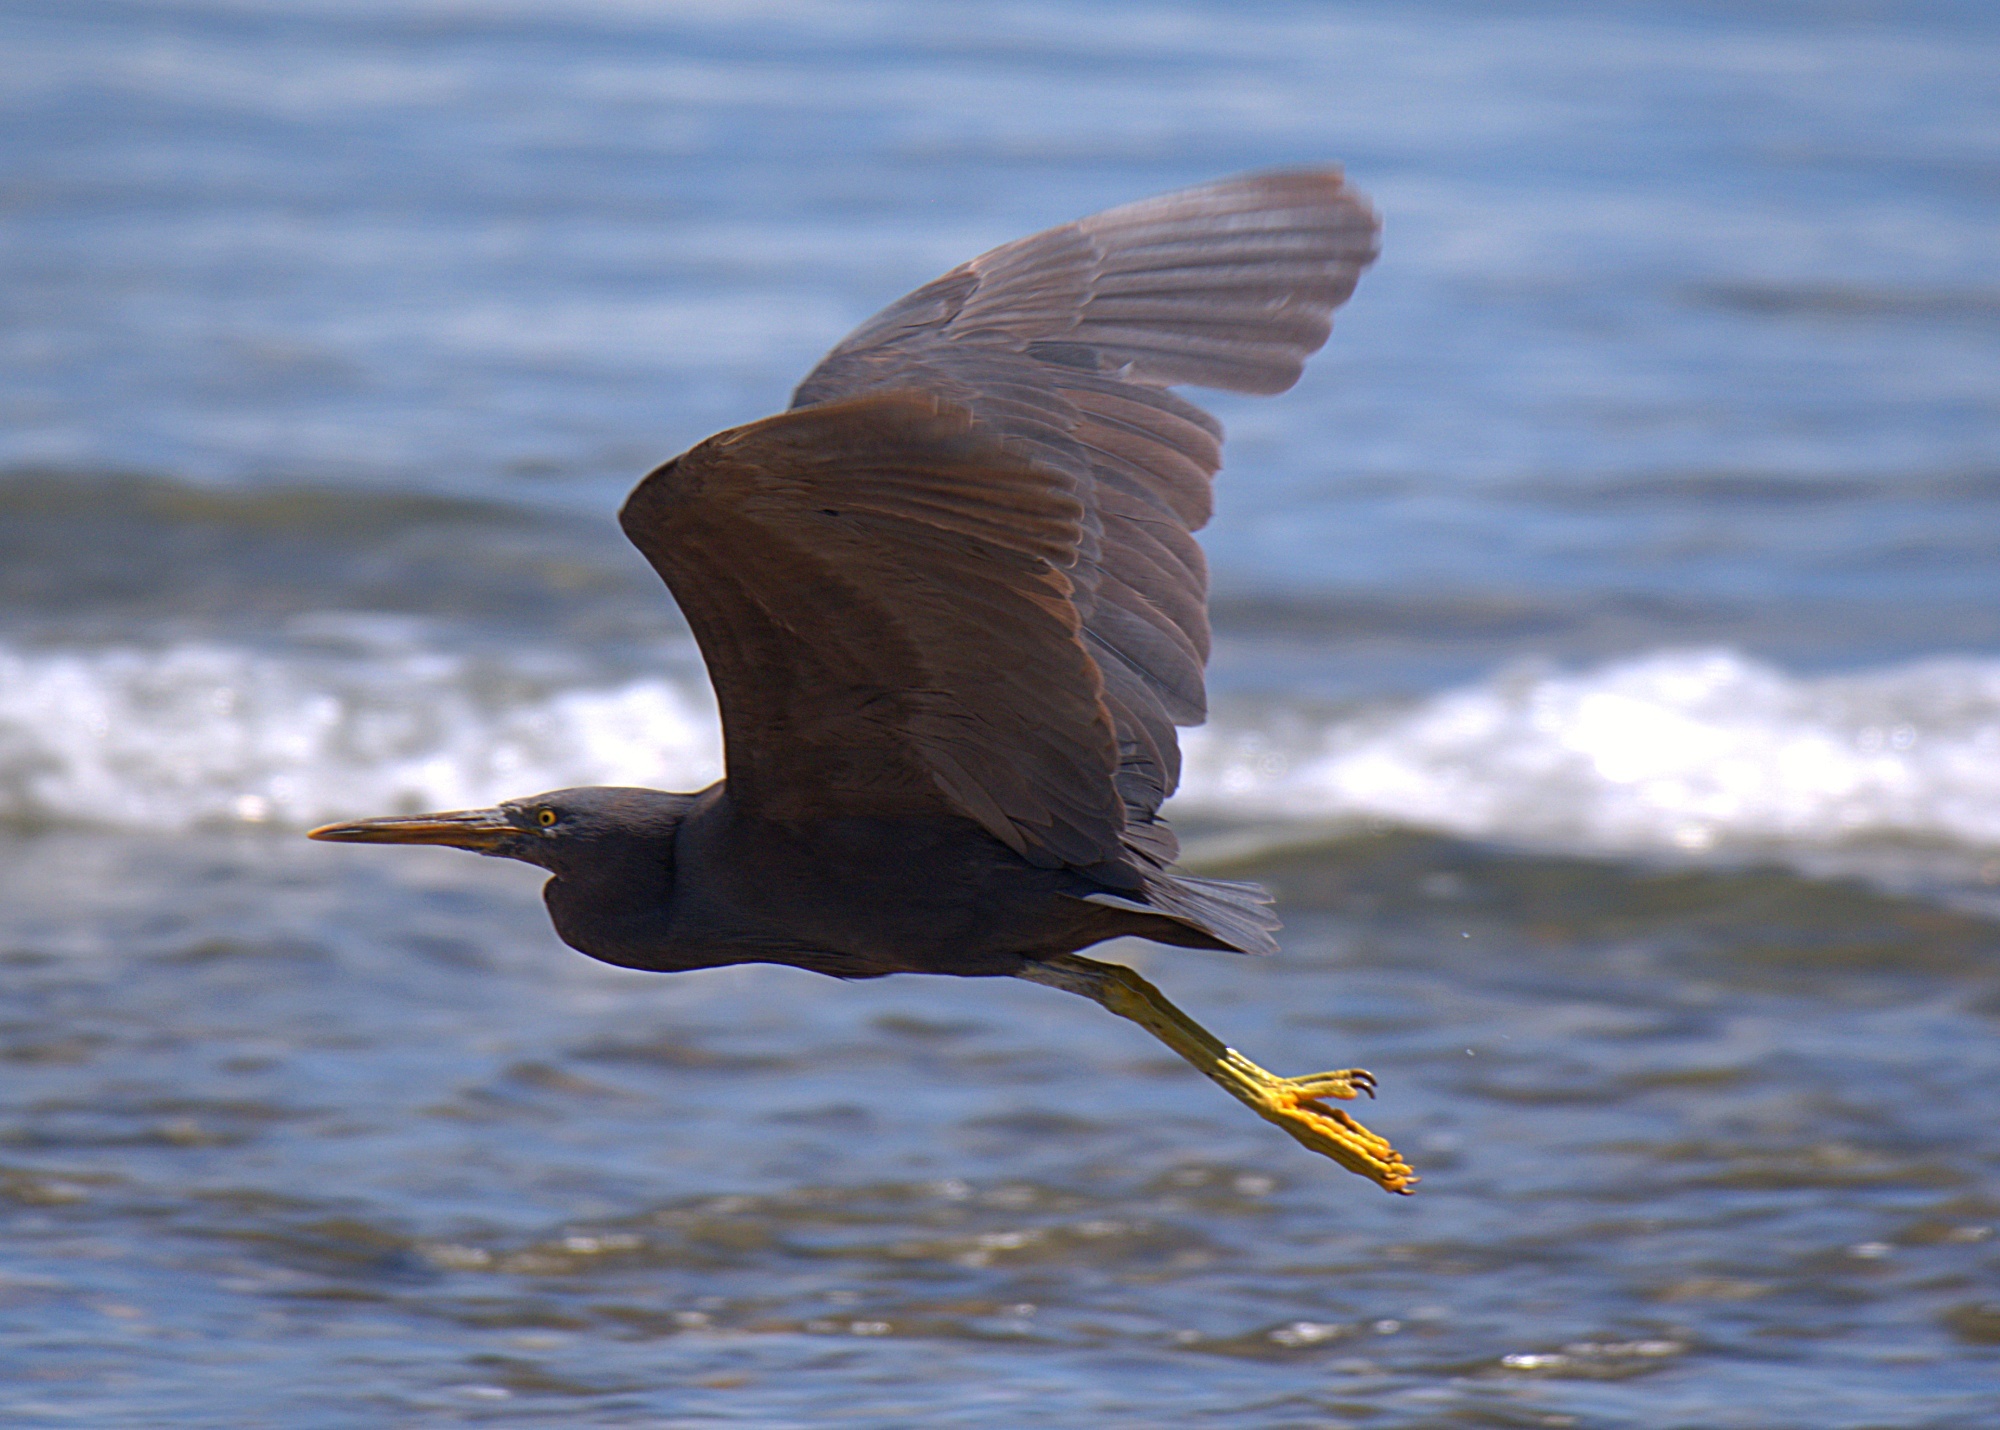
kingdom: Animalia
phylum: Chordata
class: Aves
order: Pelecaniformes
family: Ardeidae
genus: Egretta
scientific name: Egretta sacra
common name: Pacific reef heron
